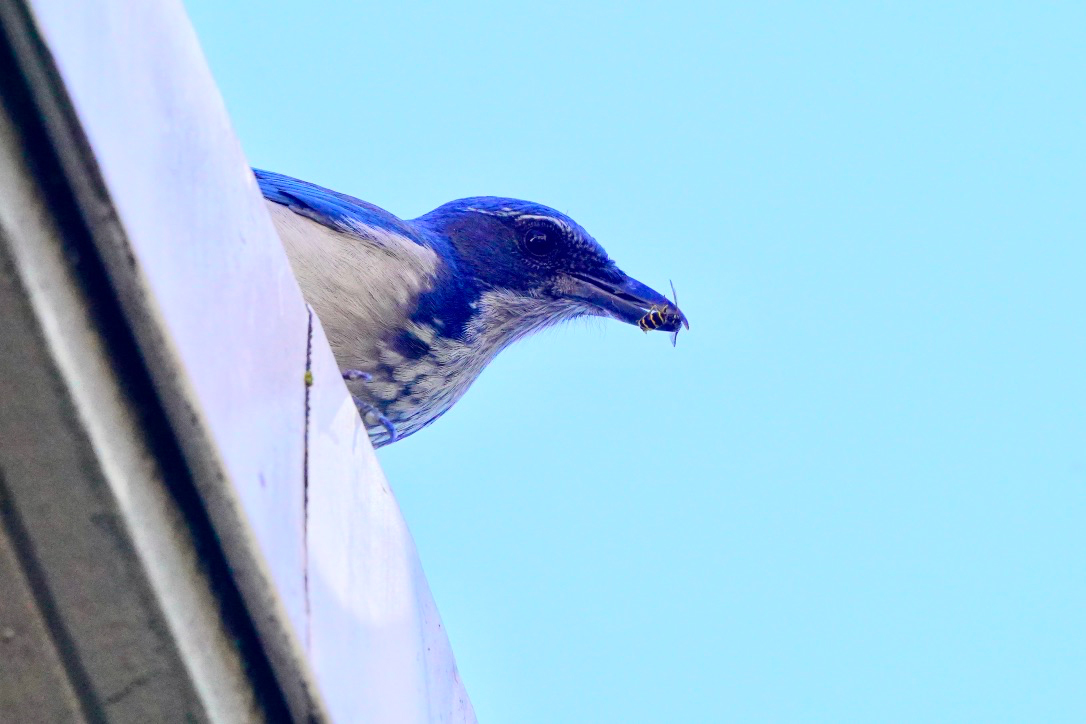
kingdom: Animalia
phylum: Chordata
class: Aves
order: Passeriformes
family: Corvidae
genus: Aphelocoma
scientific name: Aphelocoma californica
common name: California scrub-jay
